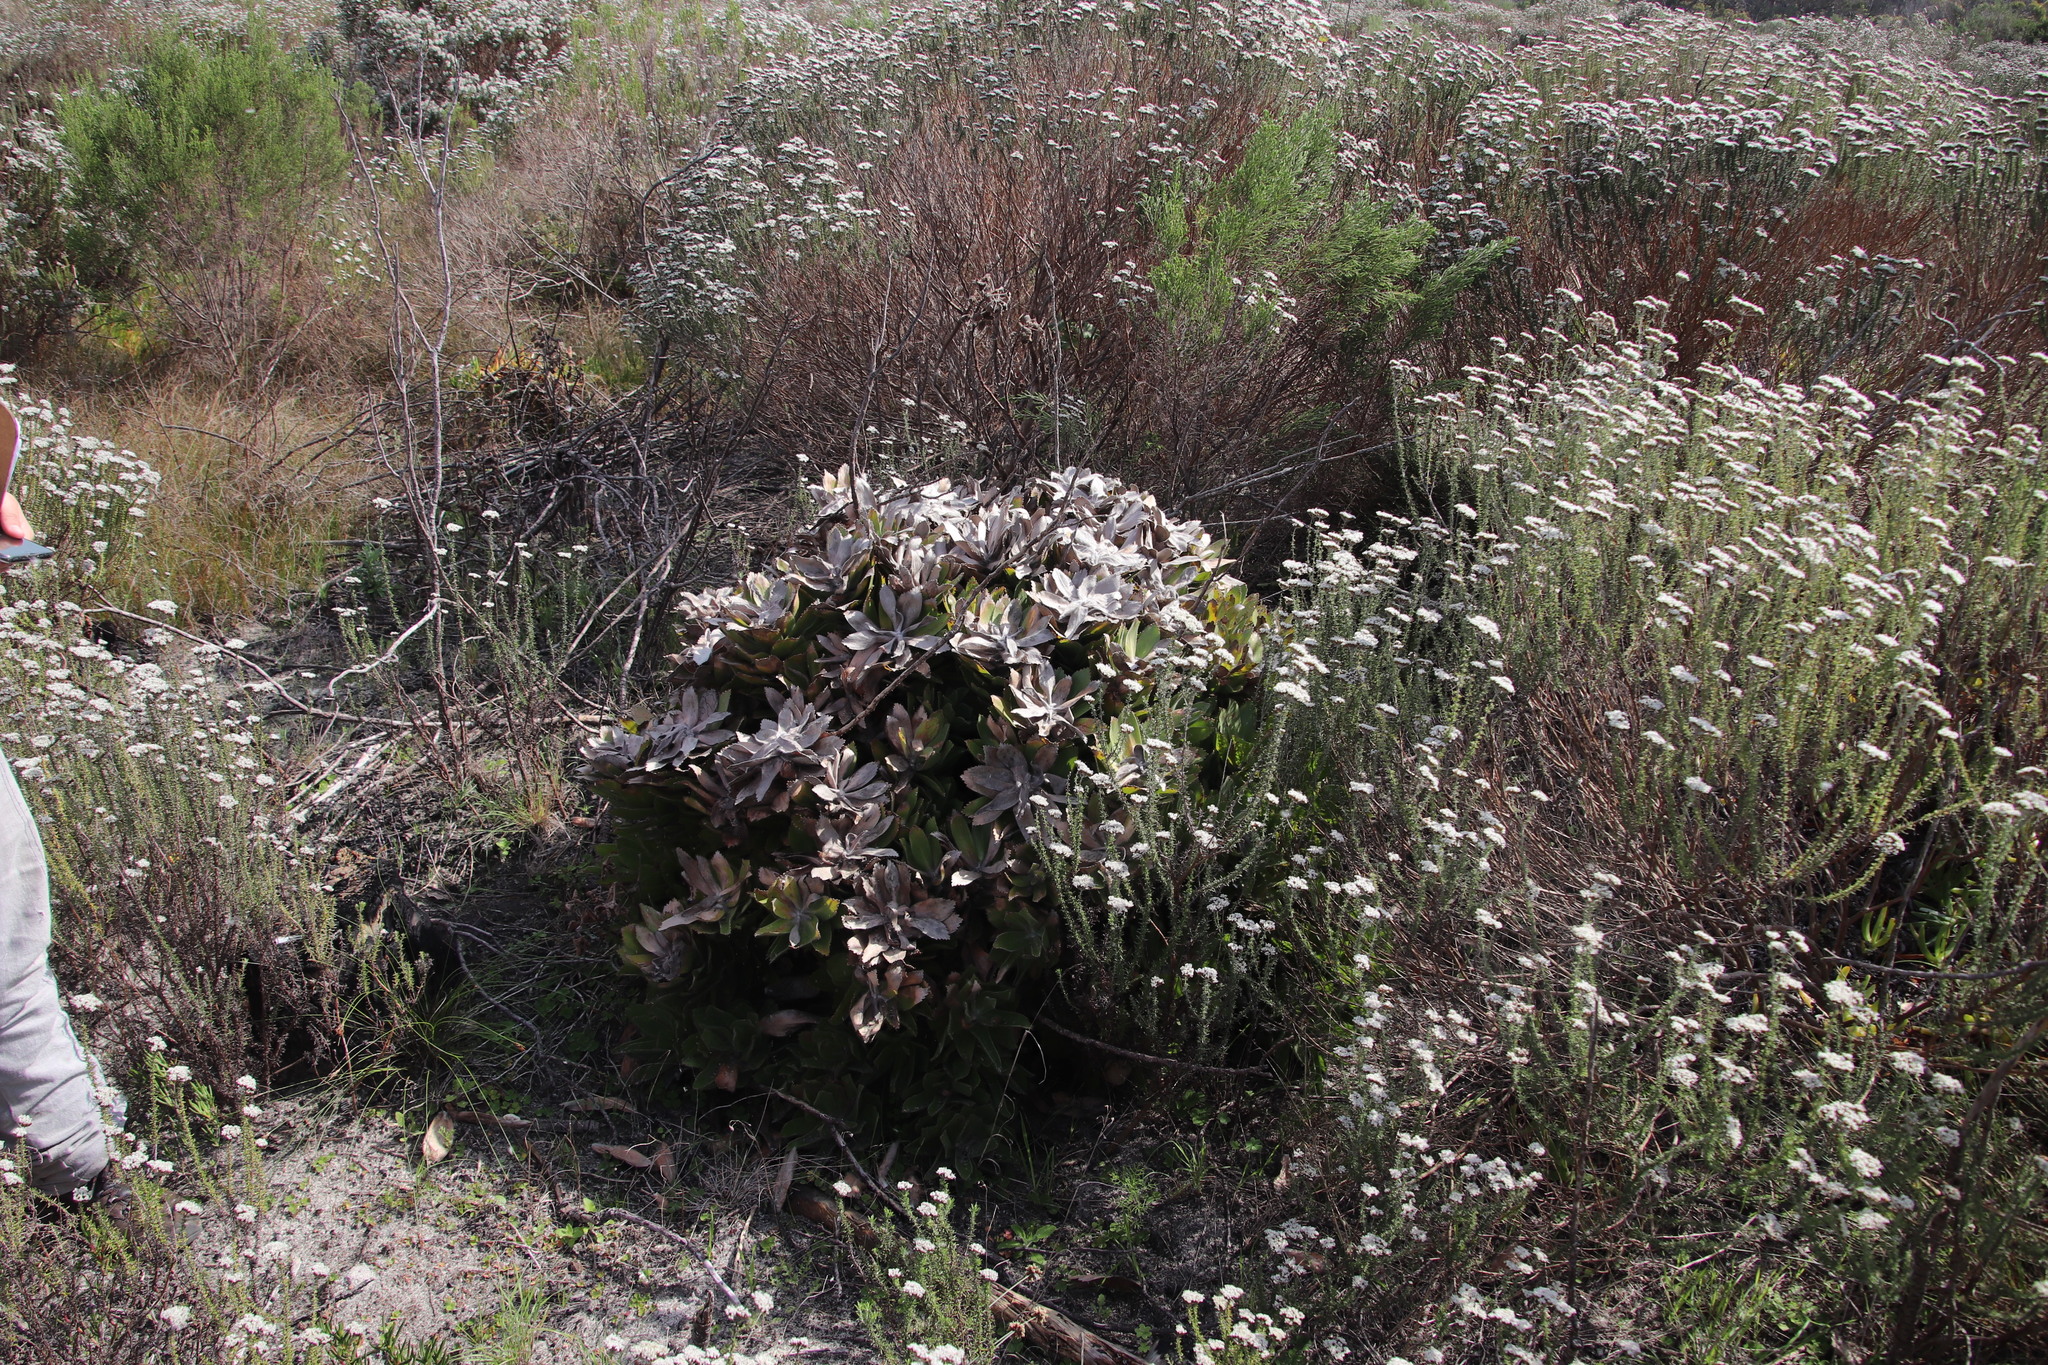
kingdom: Plantae
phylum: Tracheophyta
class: Magnoliopsida
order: Proteales
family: Proteaceae
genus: Leucospermum
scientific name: Leucospermum conocarpodendron
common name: Tree pincushion
